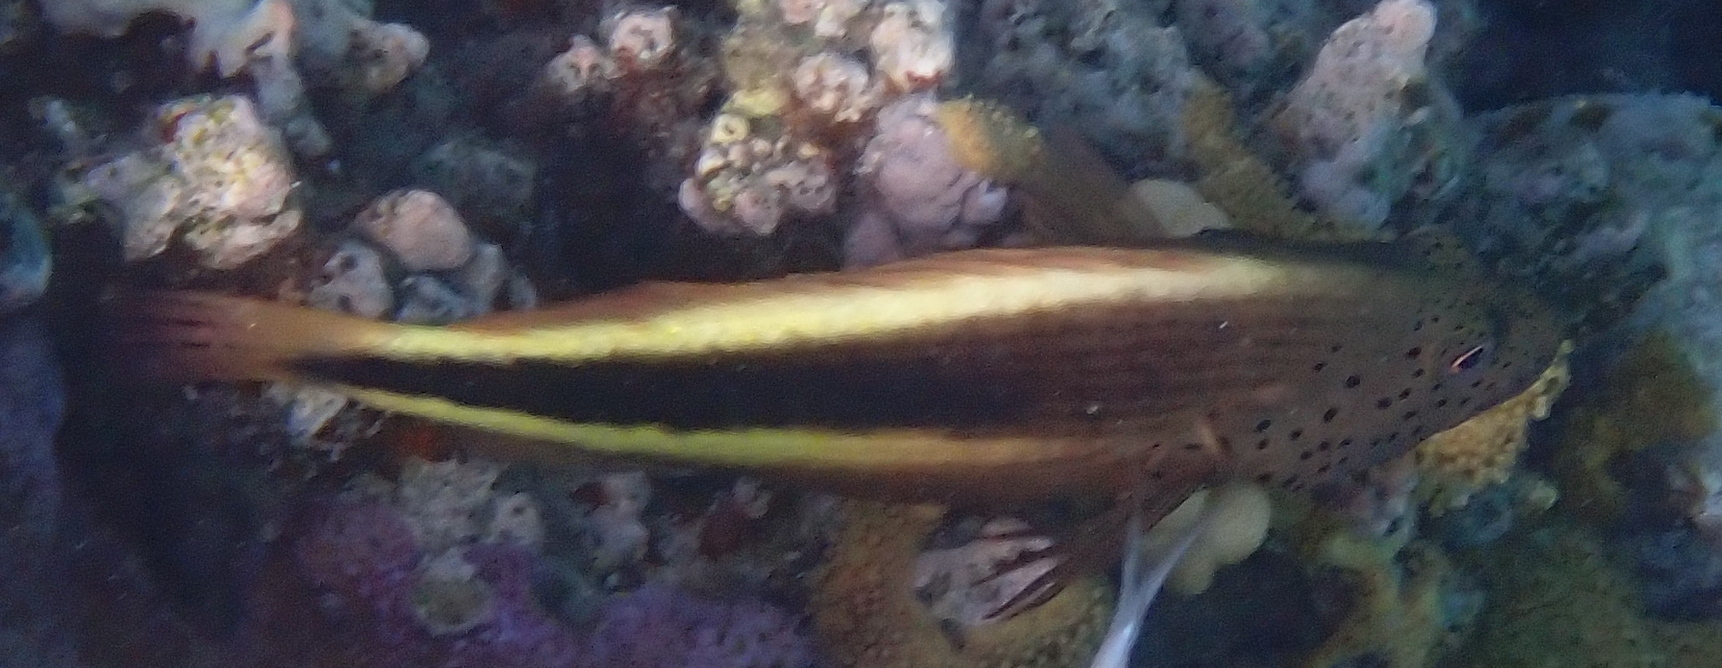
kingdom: Animalia
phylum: Chordata
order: Perciformes
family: Cirrhitidae
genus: Paracirrhites
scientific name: Paracirrhites forsteri
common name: Freckled hawkfish
